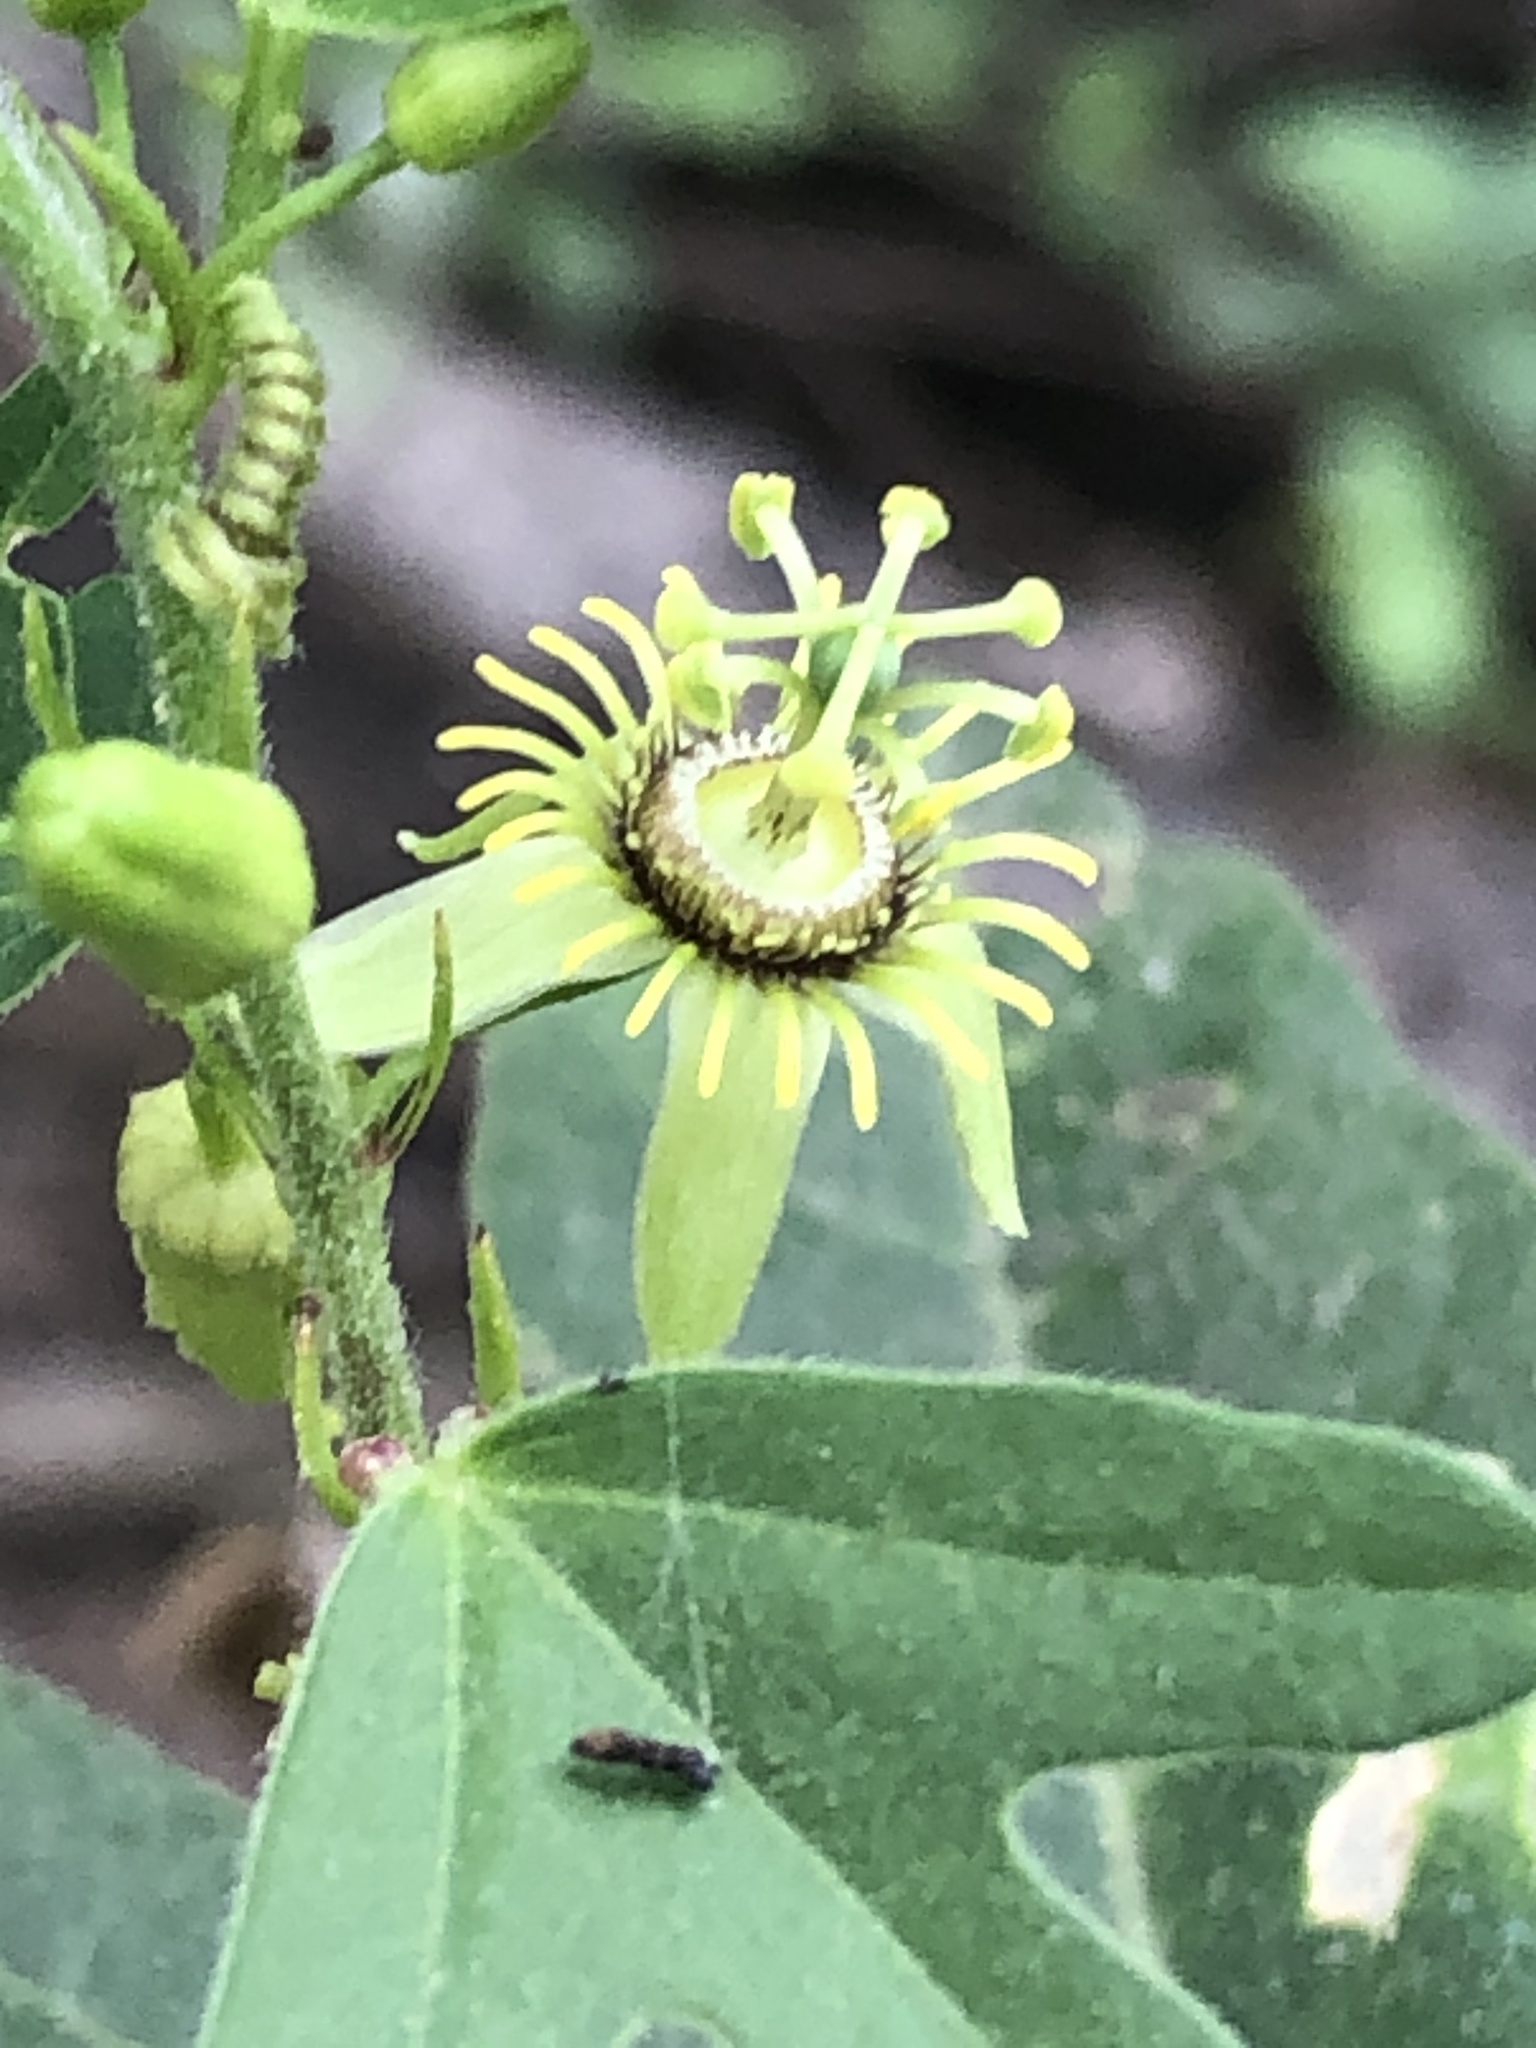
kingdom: Plantae
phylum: Tracheophyta
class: Magnoliopsida
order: Malpighiales
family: Passifloraceae
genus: Passiflora
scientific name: Passiflora pallida
